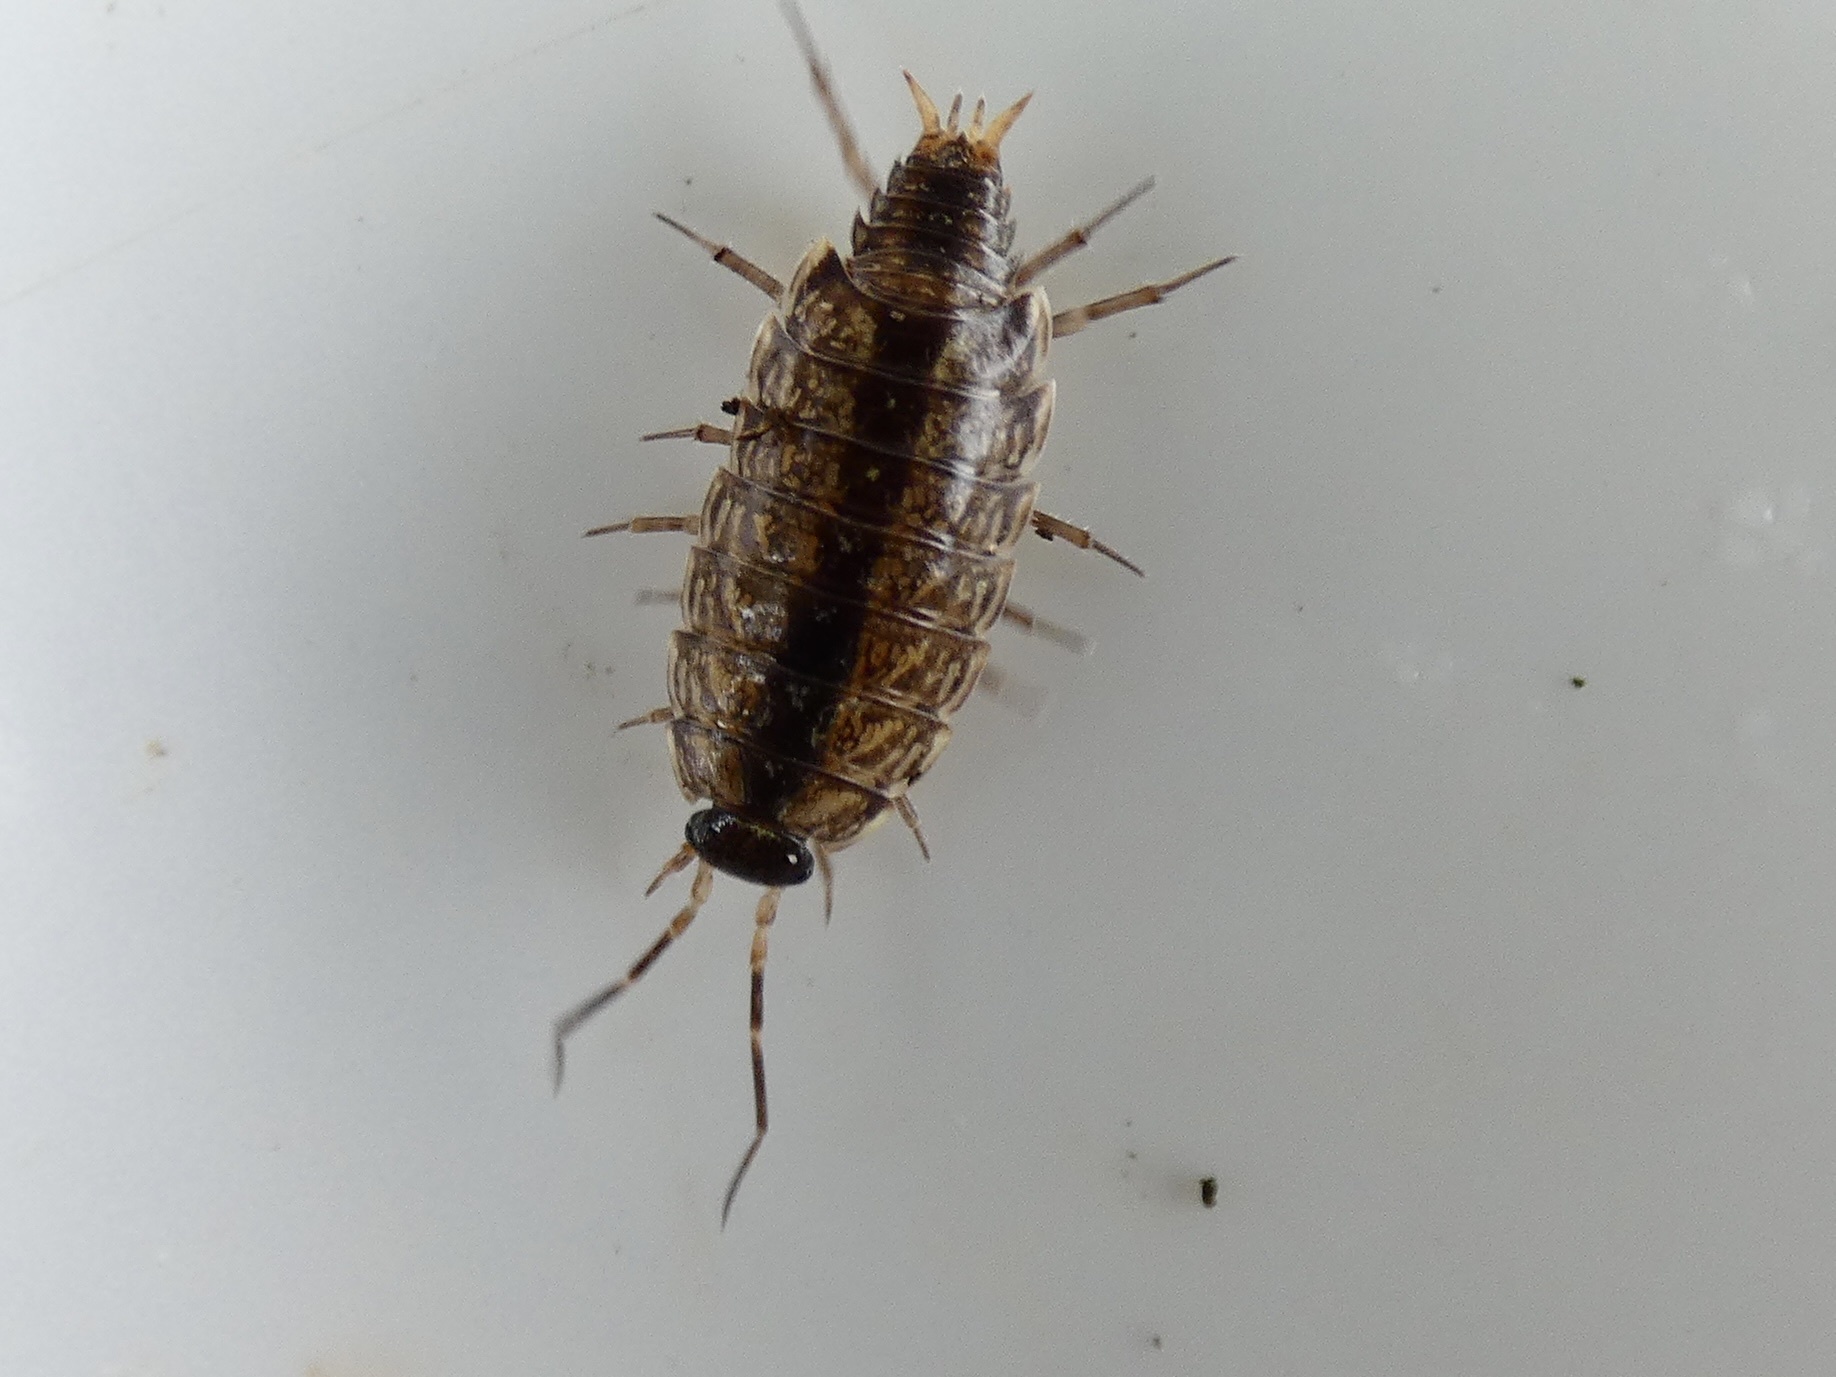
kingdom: Animalia
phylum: Arthropoda
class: Malacostraca
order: Isopoda
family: Philosciidae
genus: Philoscia
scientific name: Philoscia muscorum
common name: Common striped woodlouse
